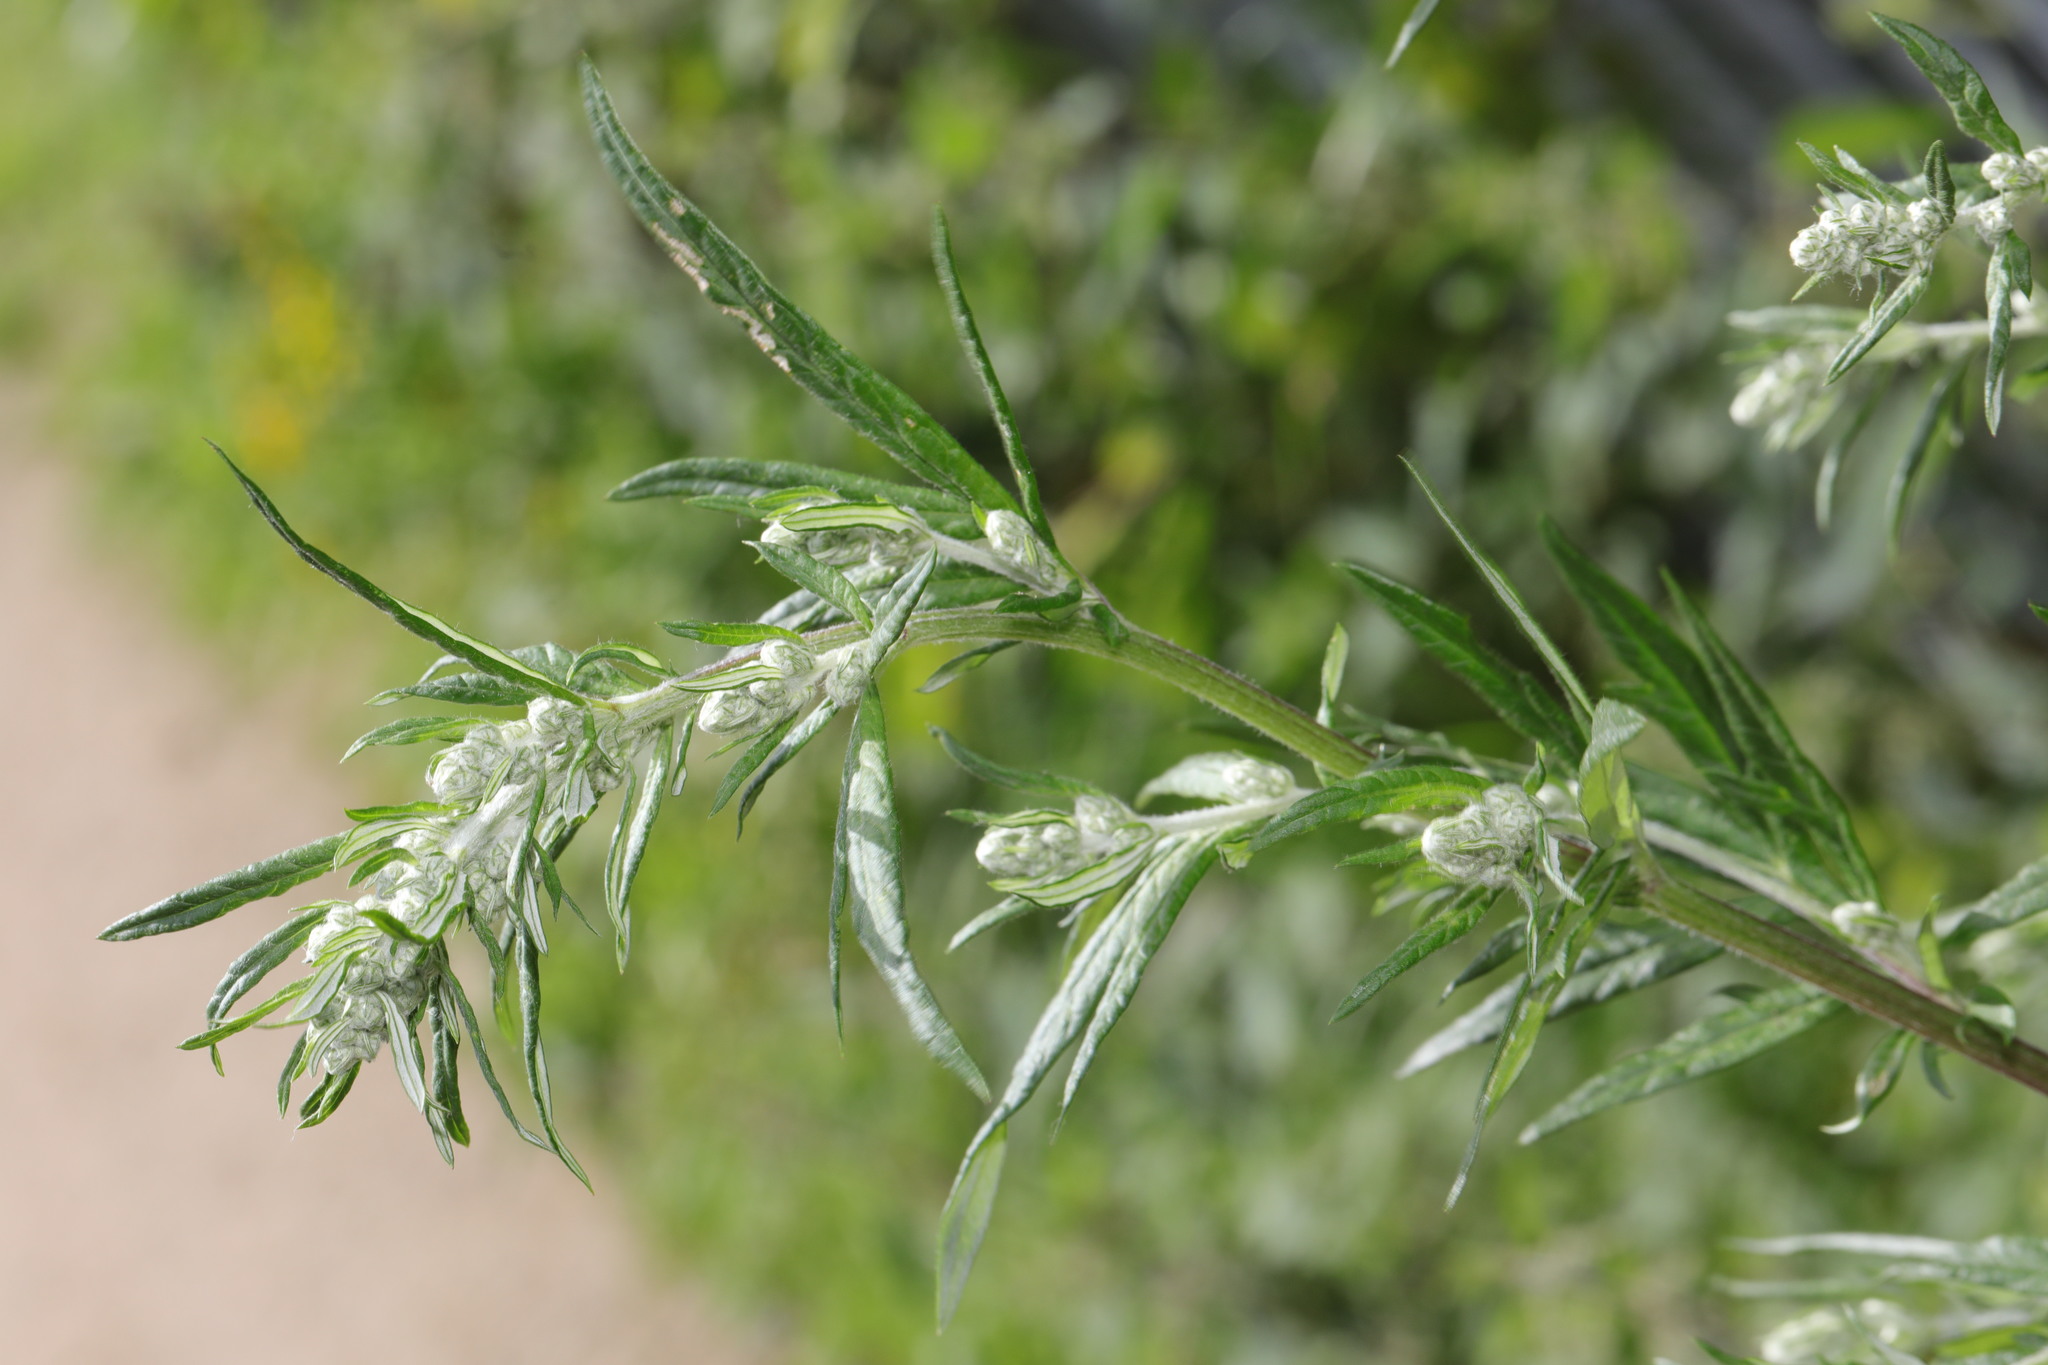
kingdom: Plantae
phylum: Tracheophyta
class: Magnoliopsida
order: Asterales
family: Asteraceae
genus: Artemisia
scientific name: Artemisia vulgaris
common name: Mugwort
